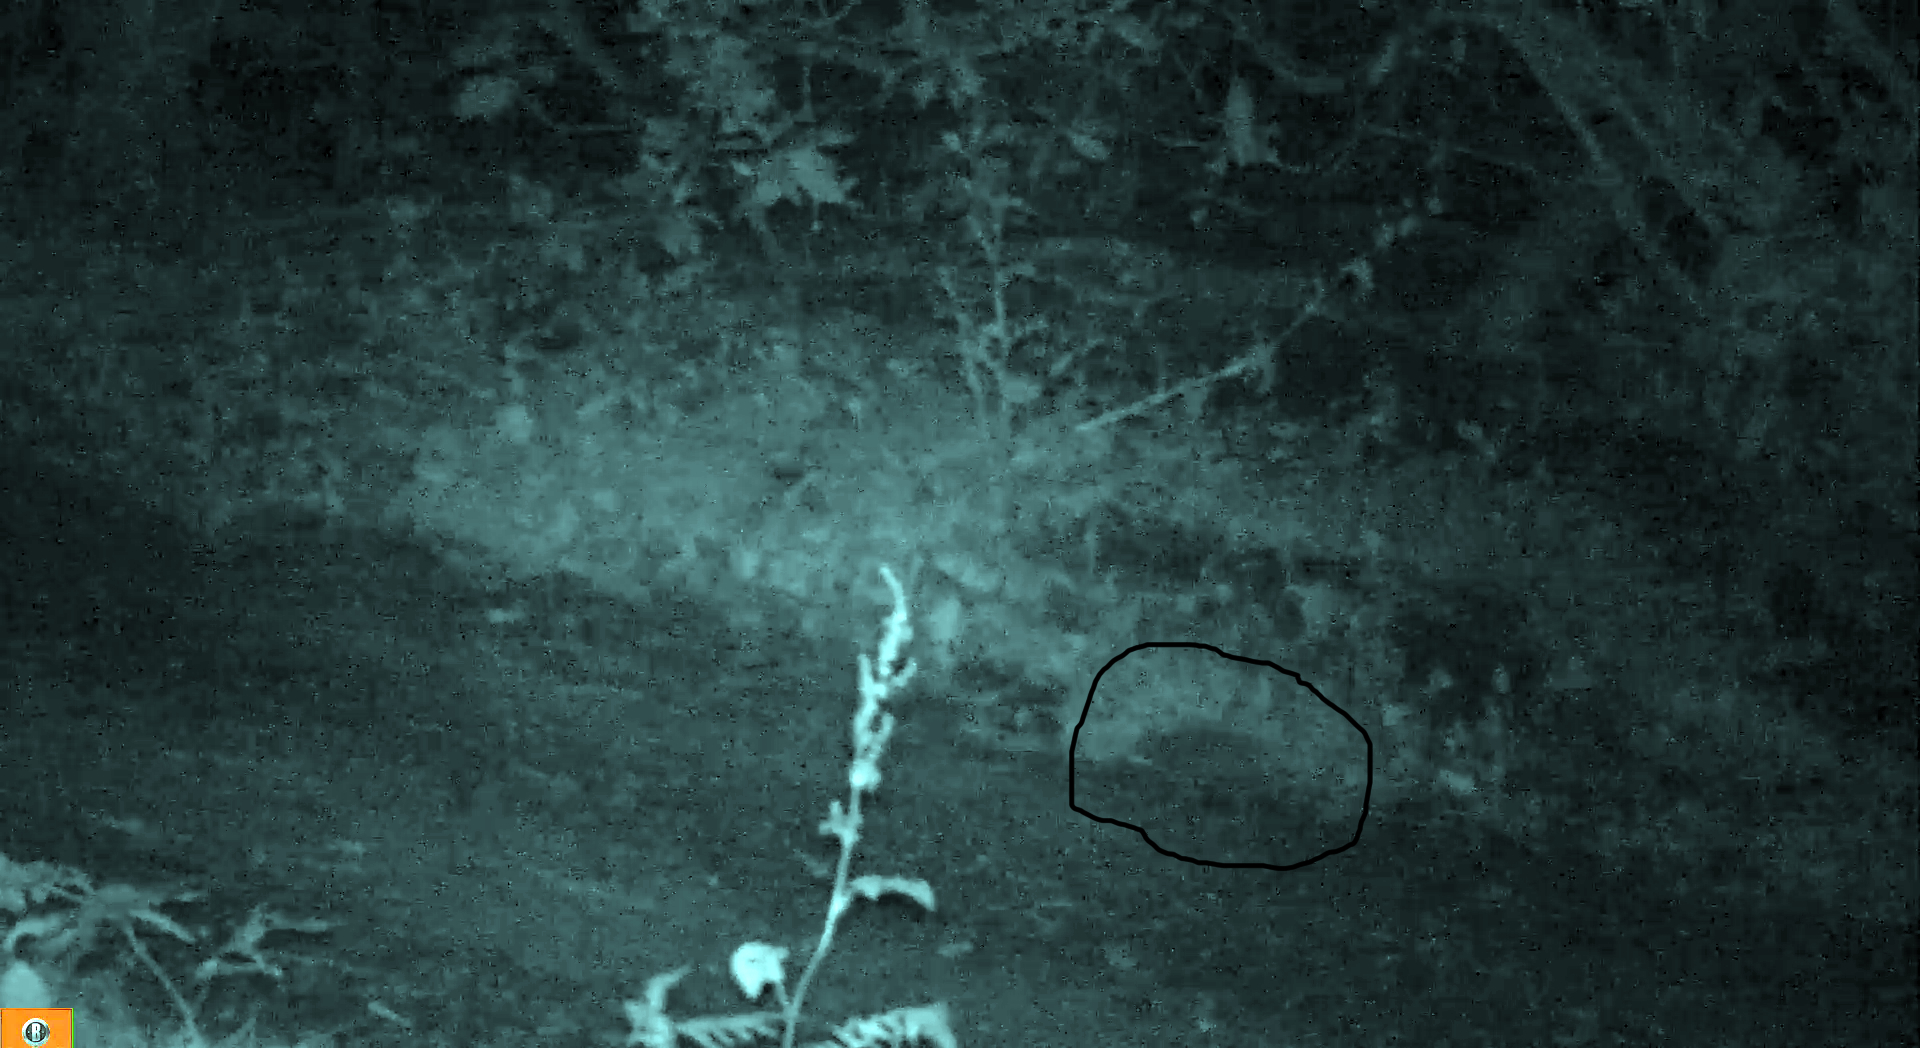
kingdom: Animalia
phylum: Chordata
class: Mammalia
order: Erinaceomorpha
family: Erinaceidae
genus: Erinaceus
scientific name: Erinaceus europaeus
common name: West european hedgehog
